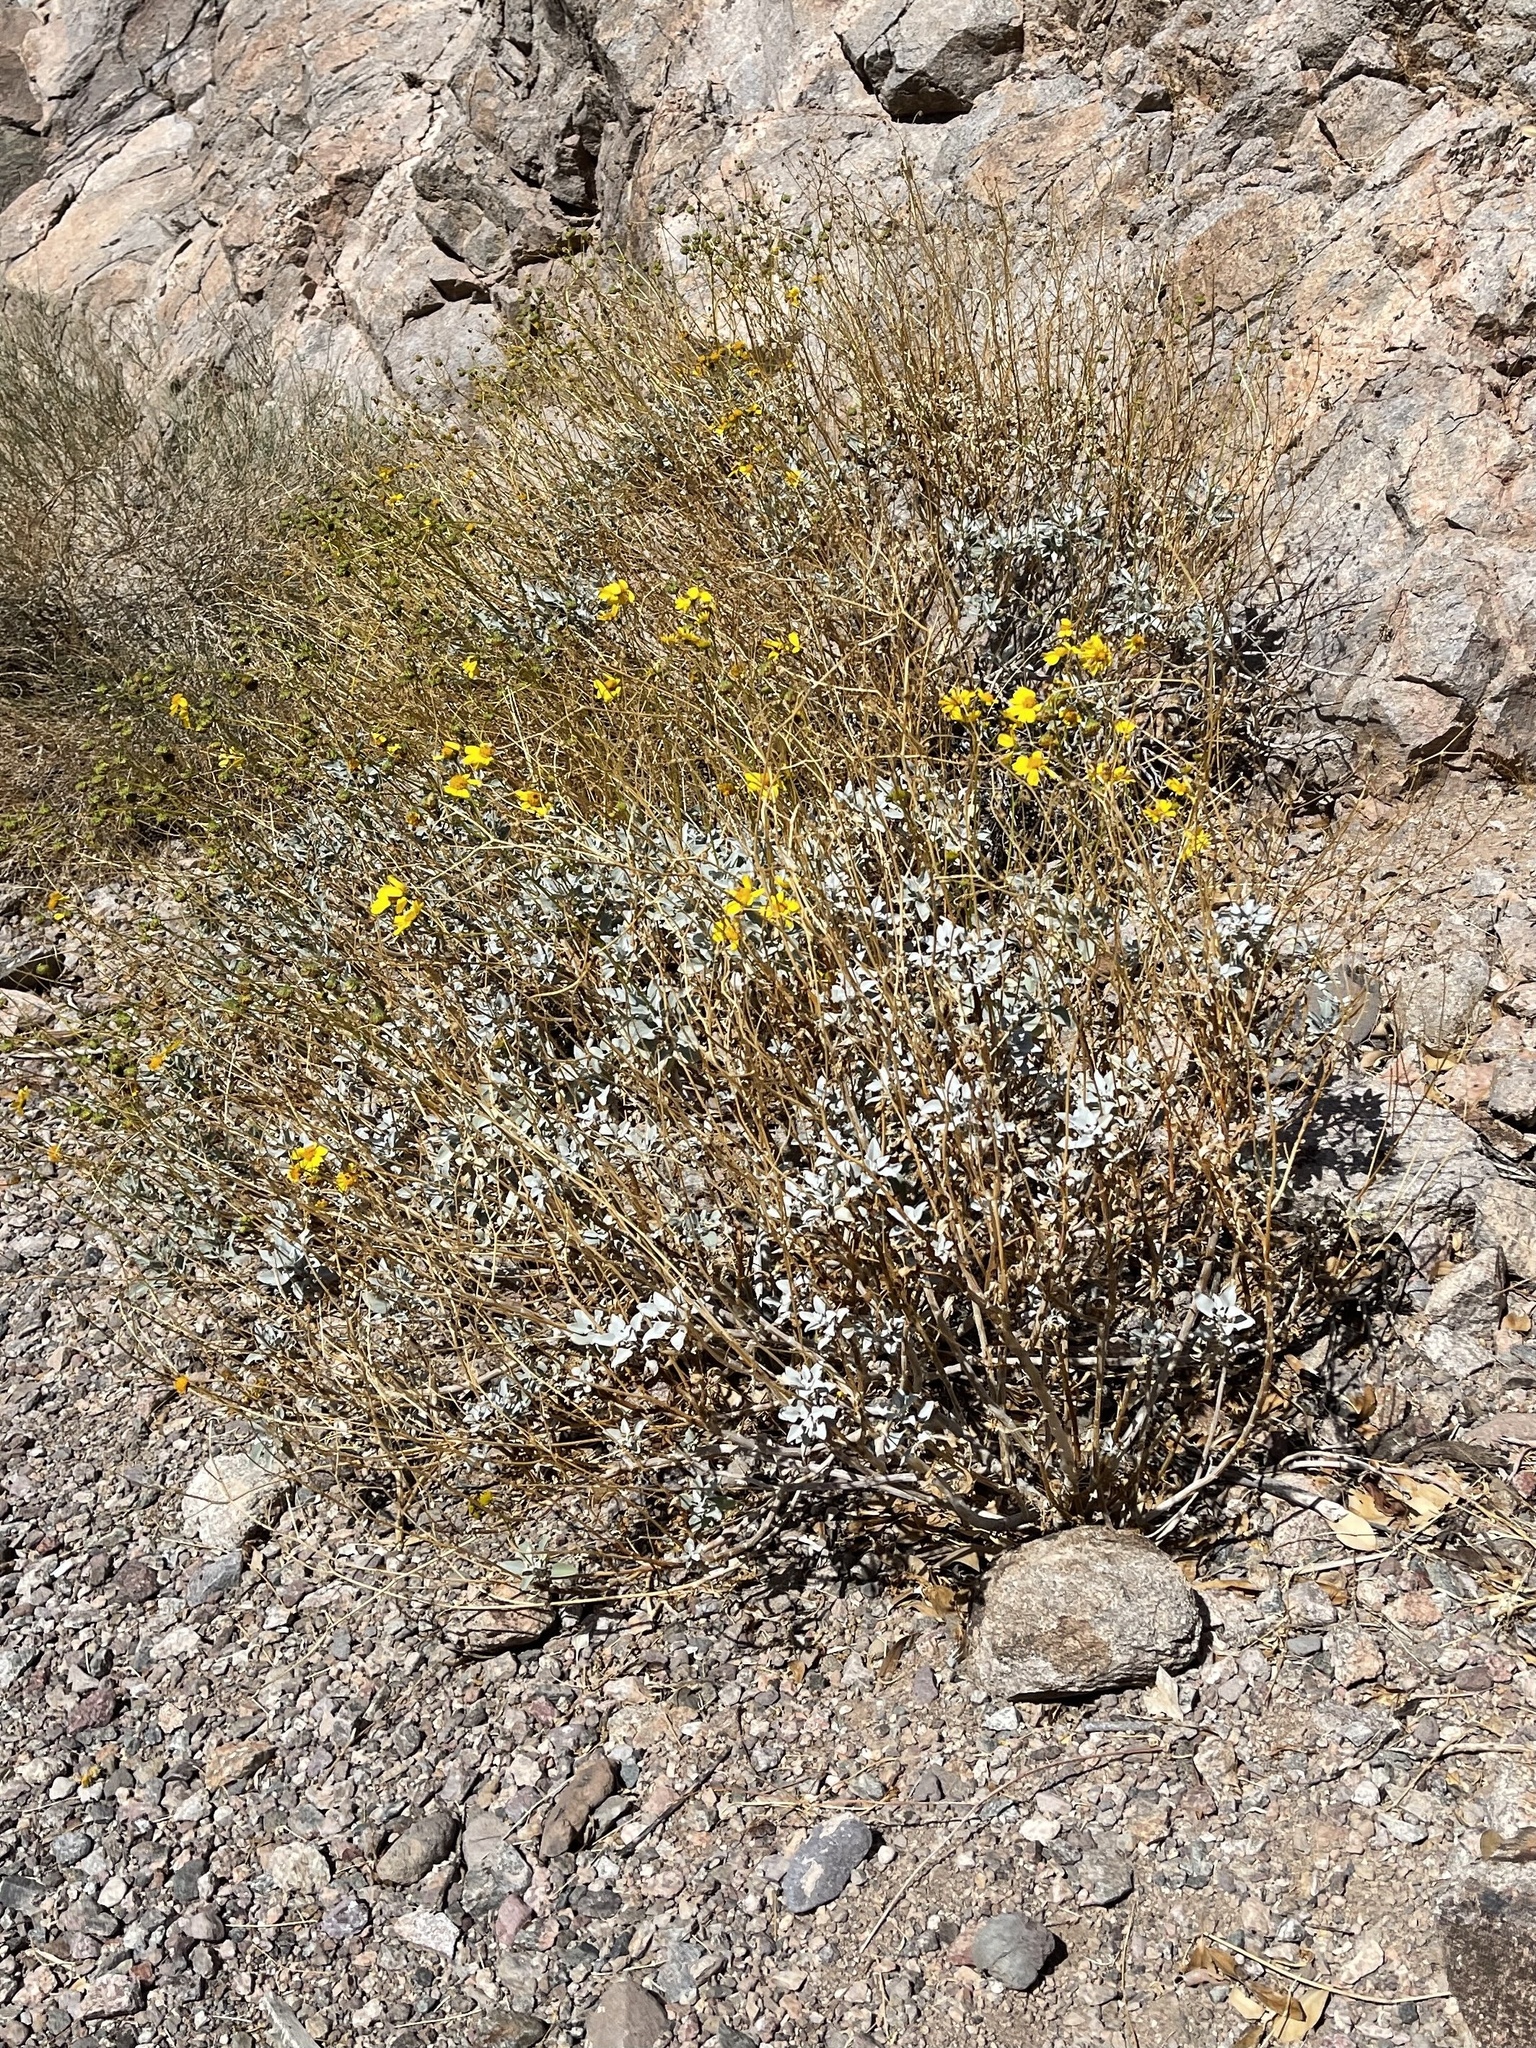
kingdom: Plantae
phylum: Tracheophyta
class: Magnoliopsida
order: Asterales
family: Asteraceae
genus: Encelia
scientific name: Encelia farinosa
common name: Brittlebush
